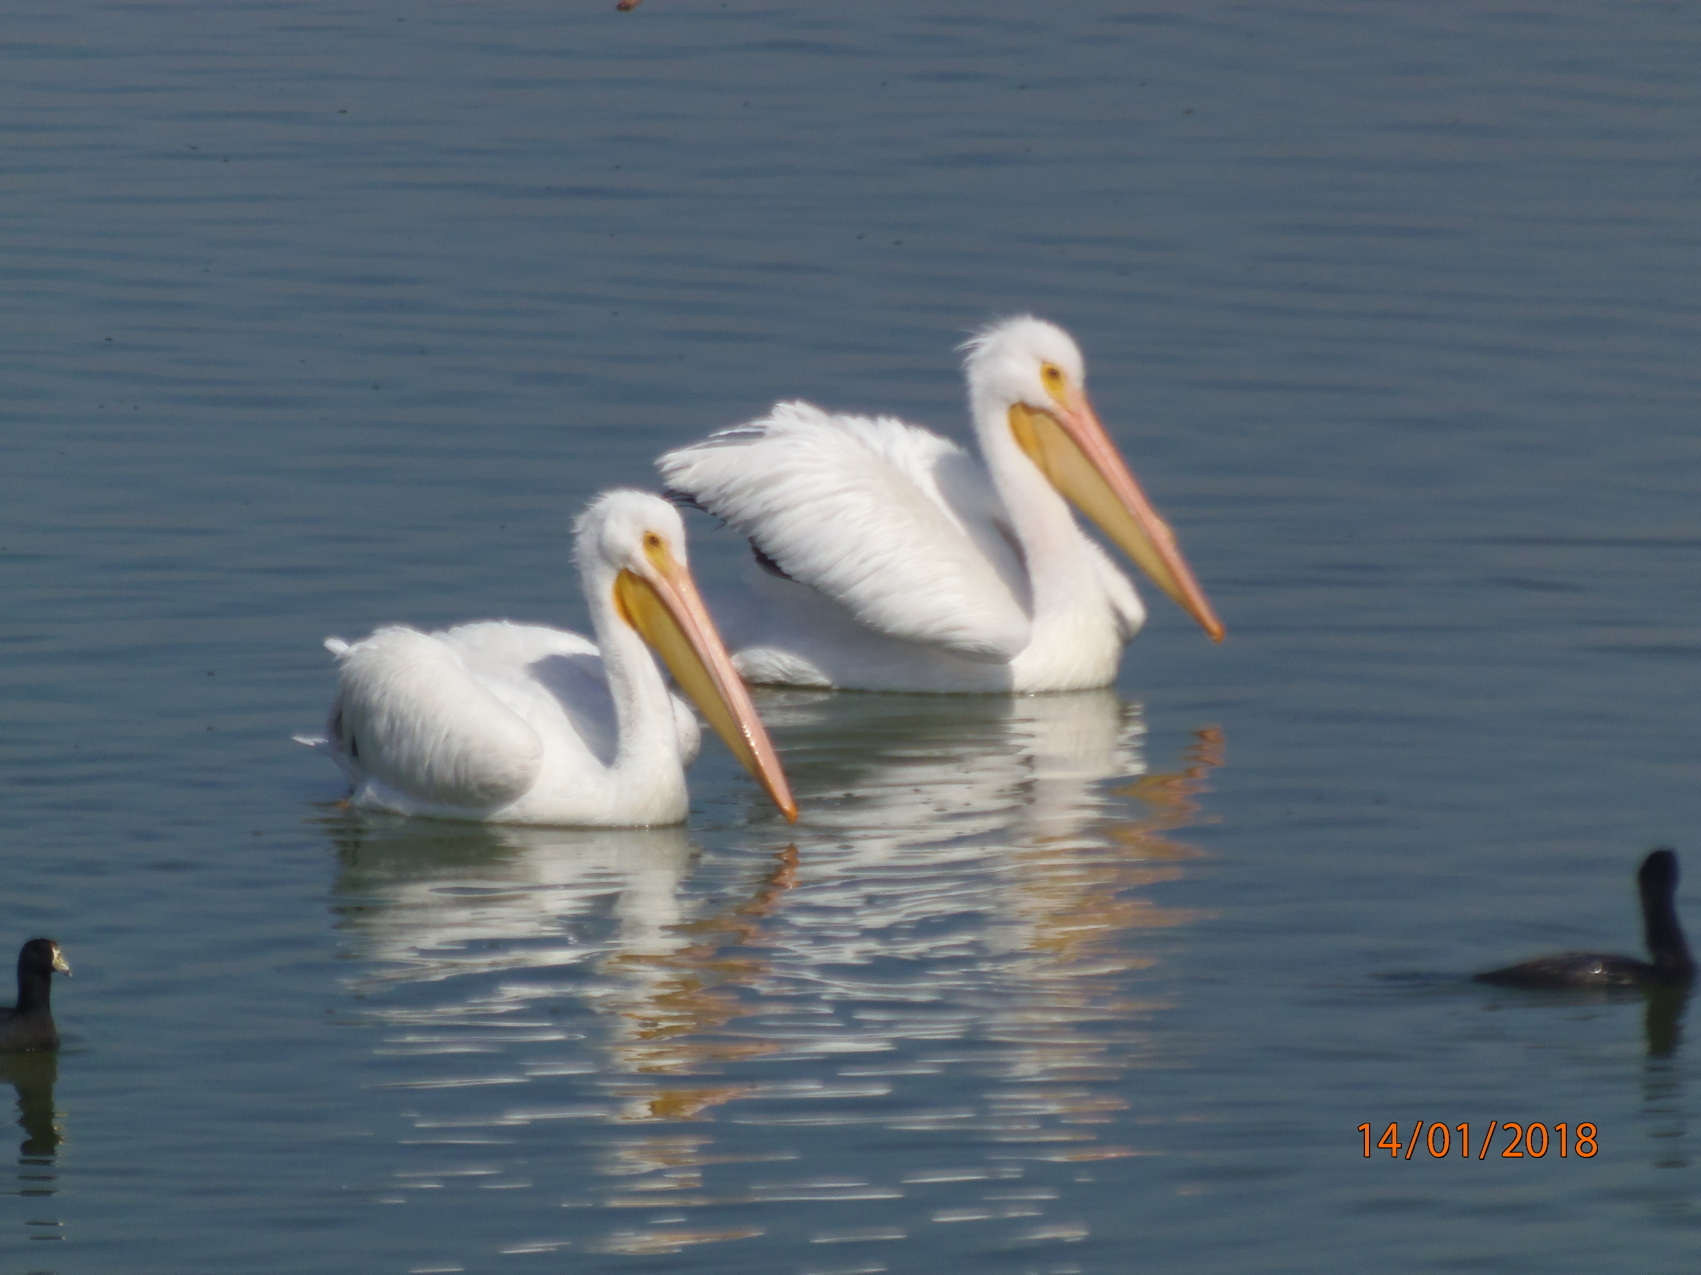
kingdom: Animalia
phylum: Chordata
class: Aves
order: Pelecaniformes
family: Pelecanidae
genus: Pelecanus
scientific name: Pelecanus erythrorhynchos
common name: American white pelican
